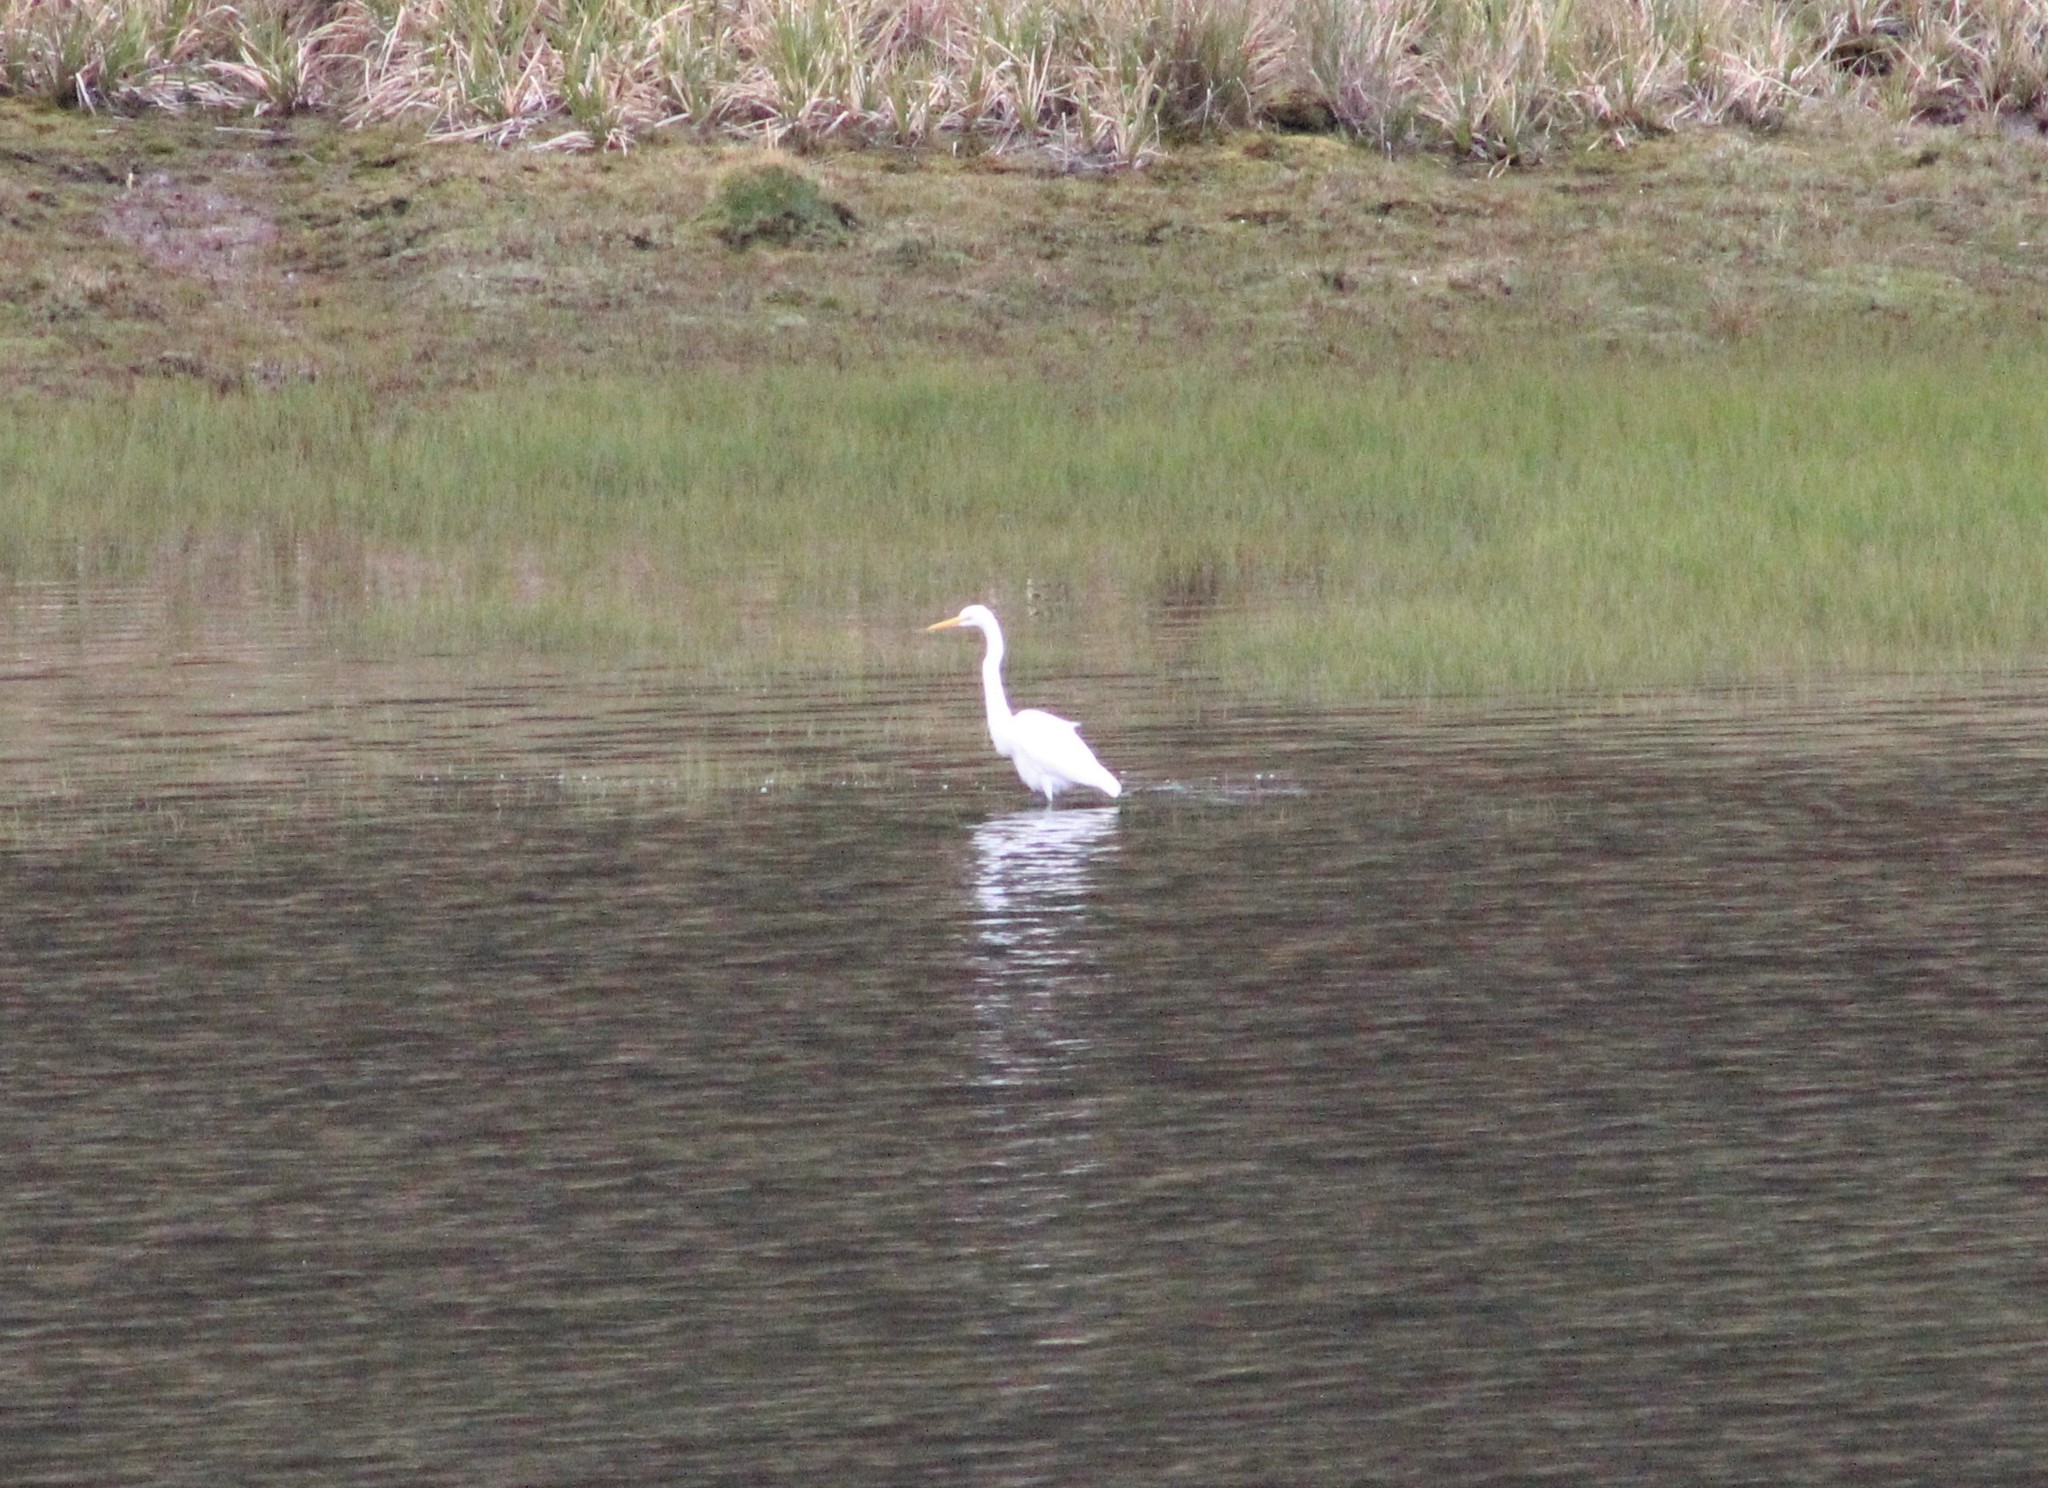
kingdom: Animalia
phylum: Chordata
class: Aves
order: Pelecaniformes
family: Ardeidae
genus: Ardea
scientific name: Ardea alba
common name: Great egret
